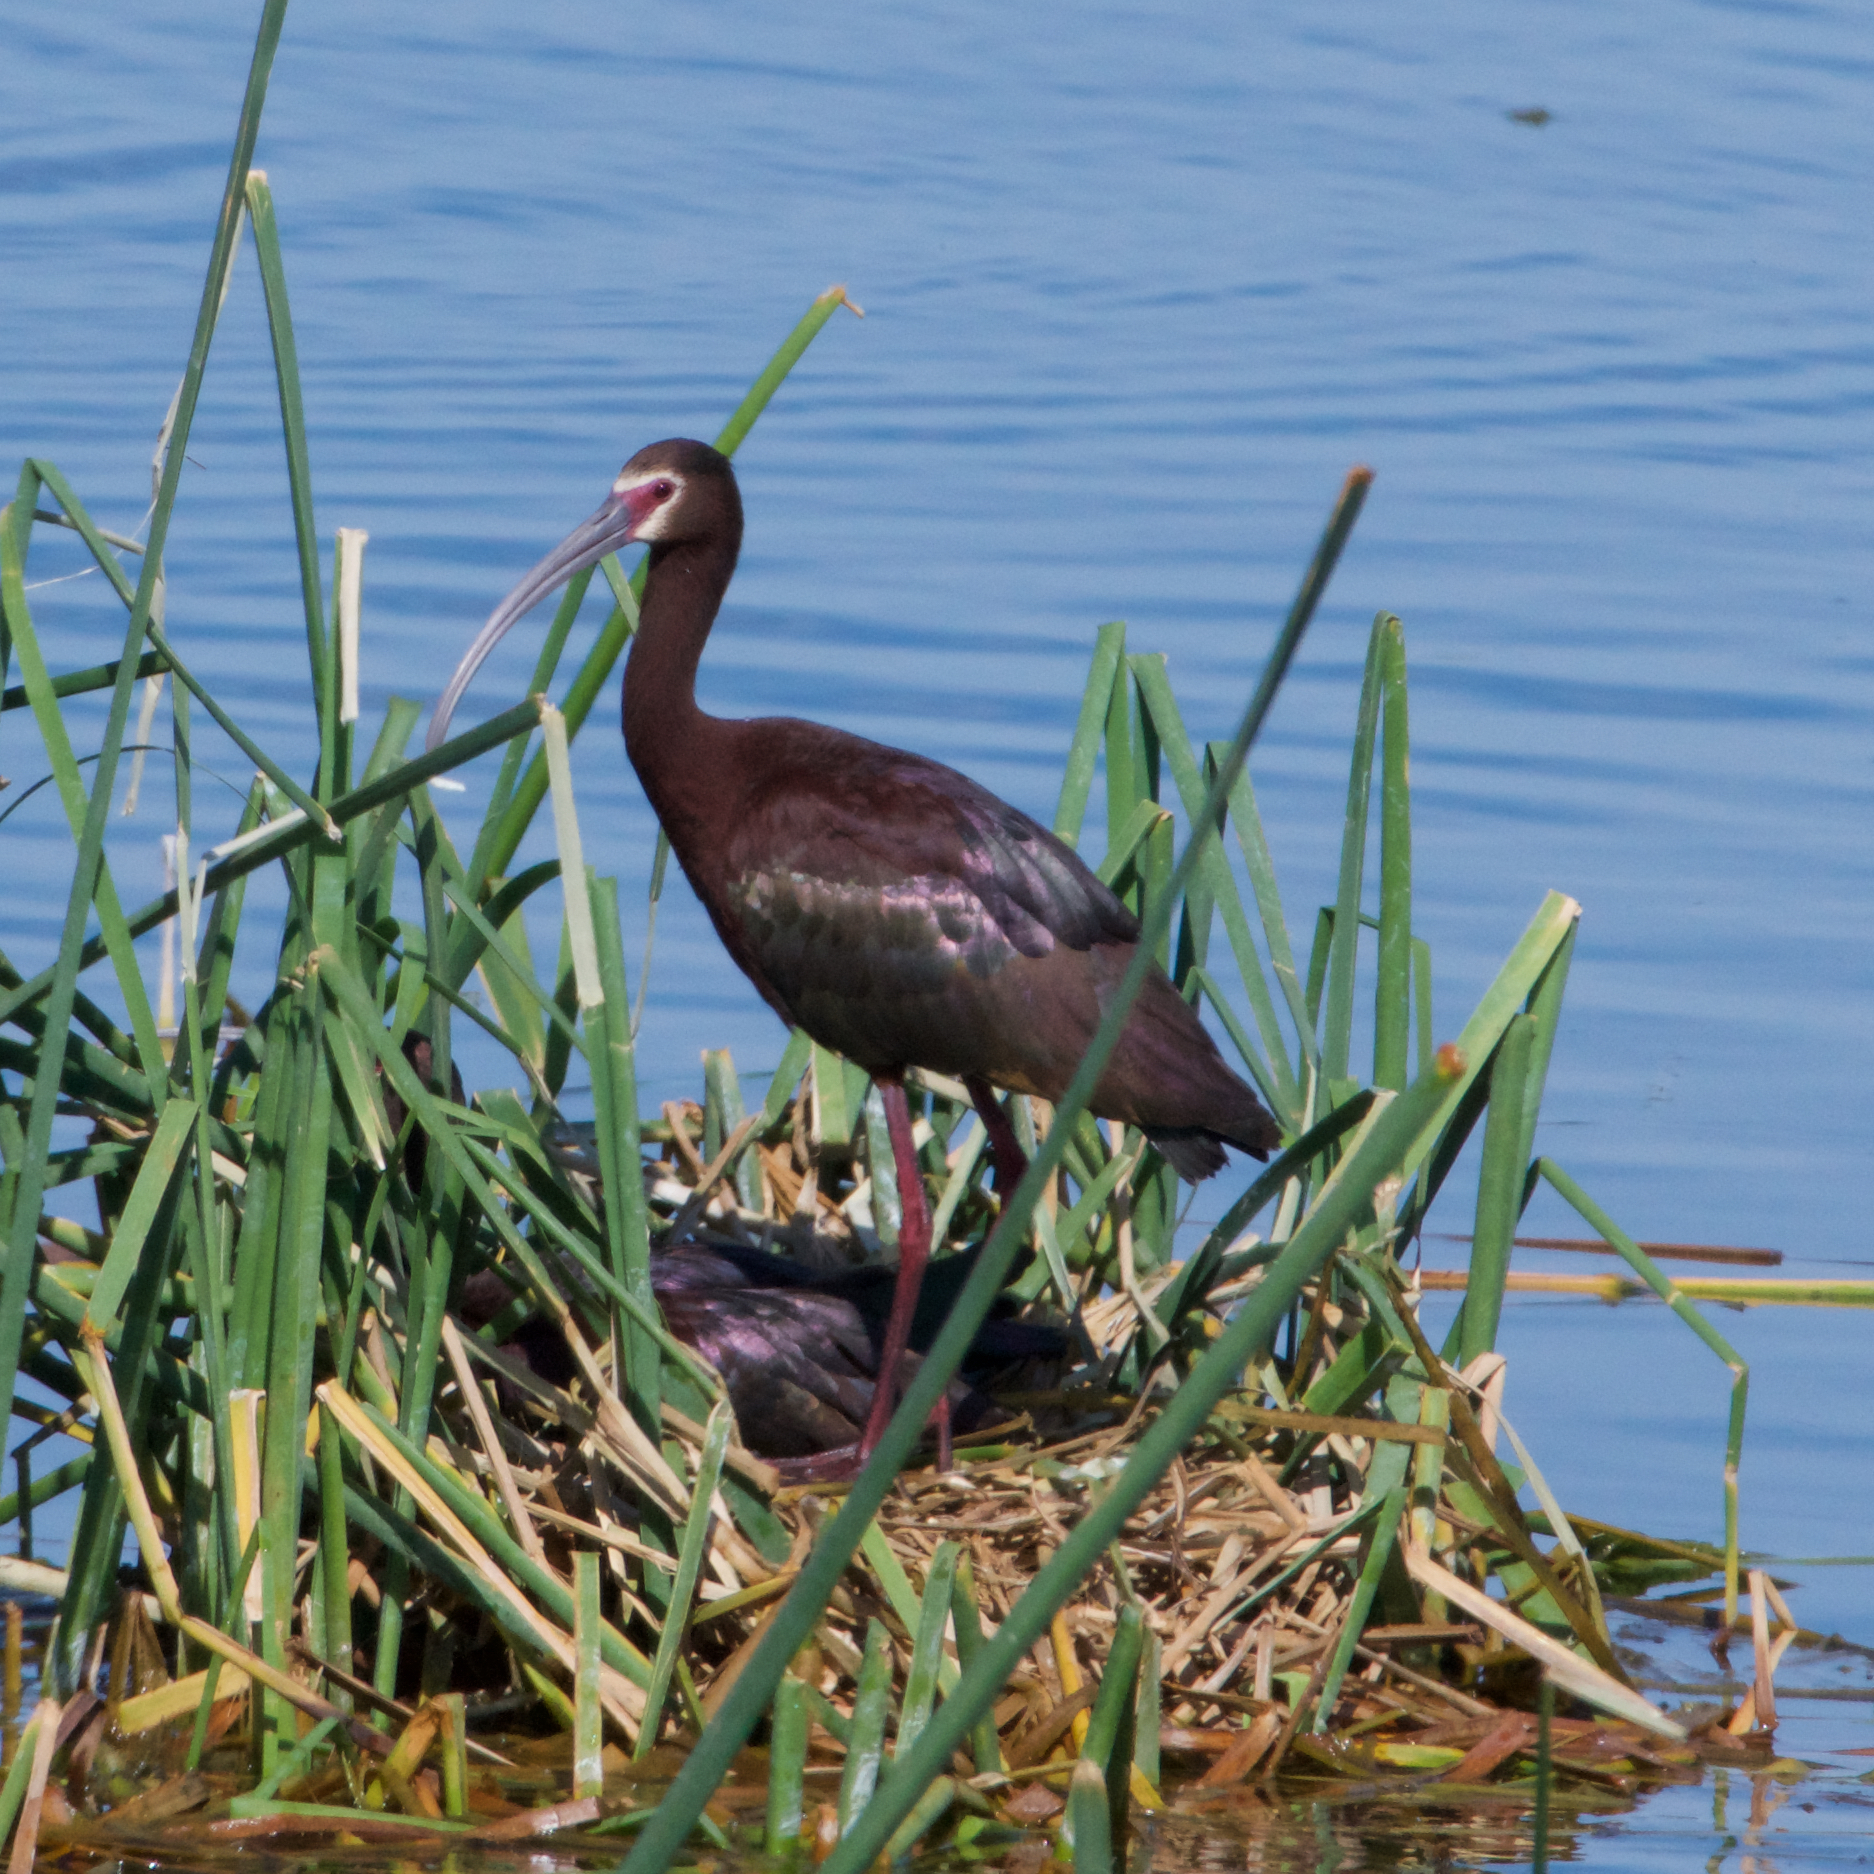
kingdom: Animalia
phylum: Chordata
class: Aves
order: Pelecaniformes
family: Threskiornithidae
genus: Plegadis
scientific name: Plegadis chihi
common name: White-faced ibis
